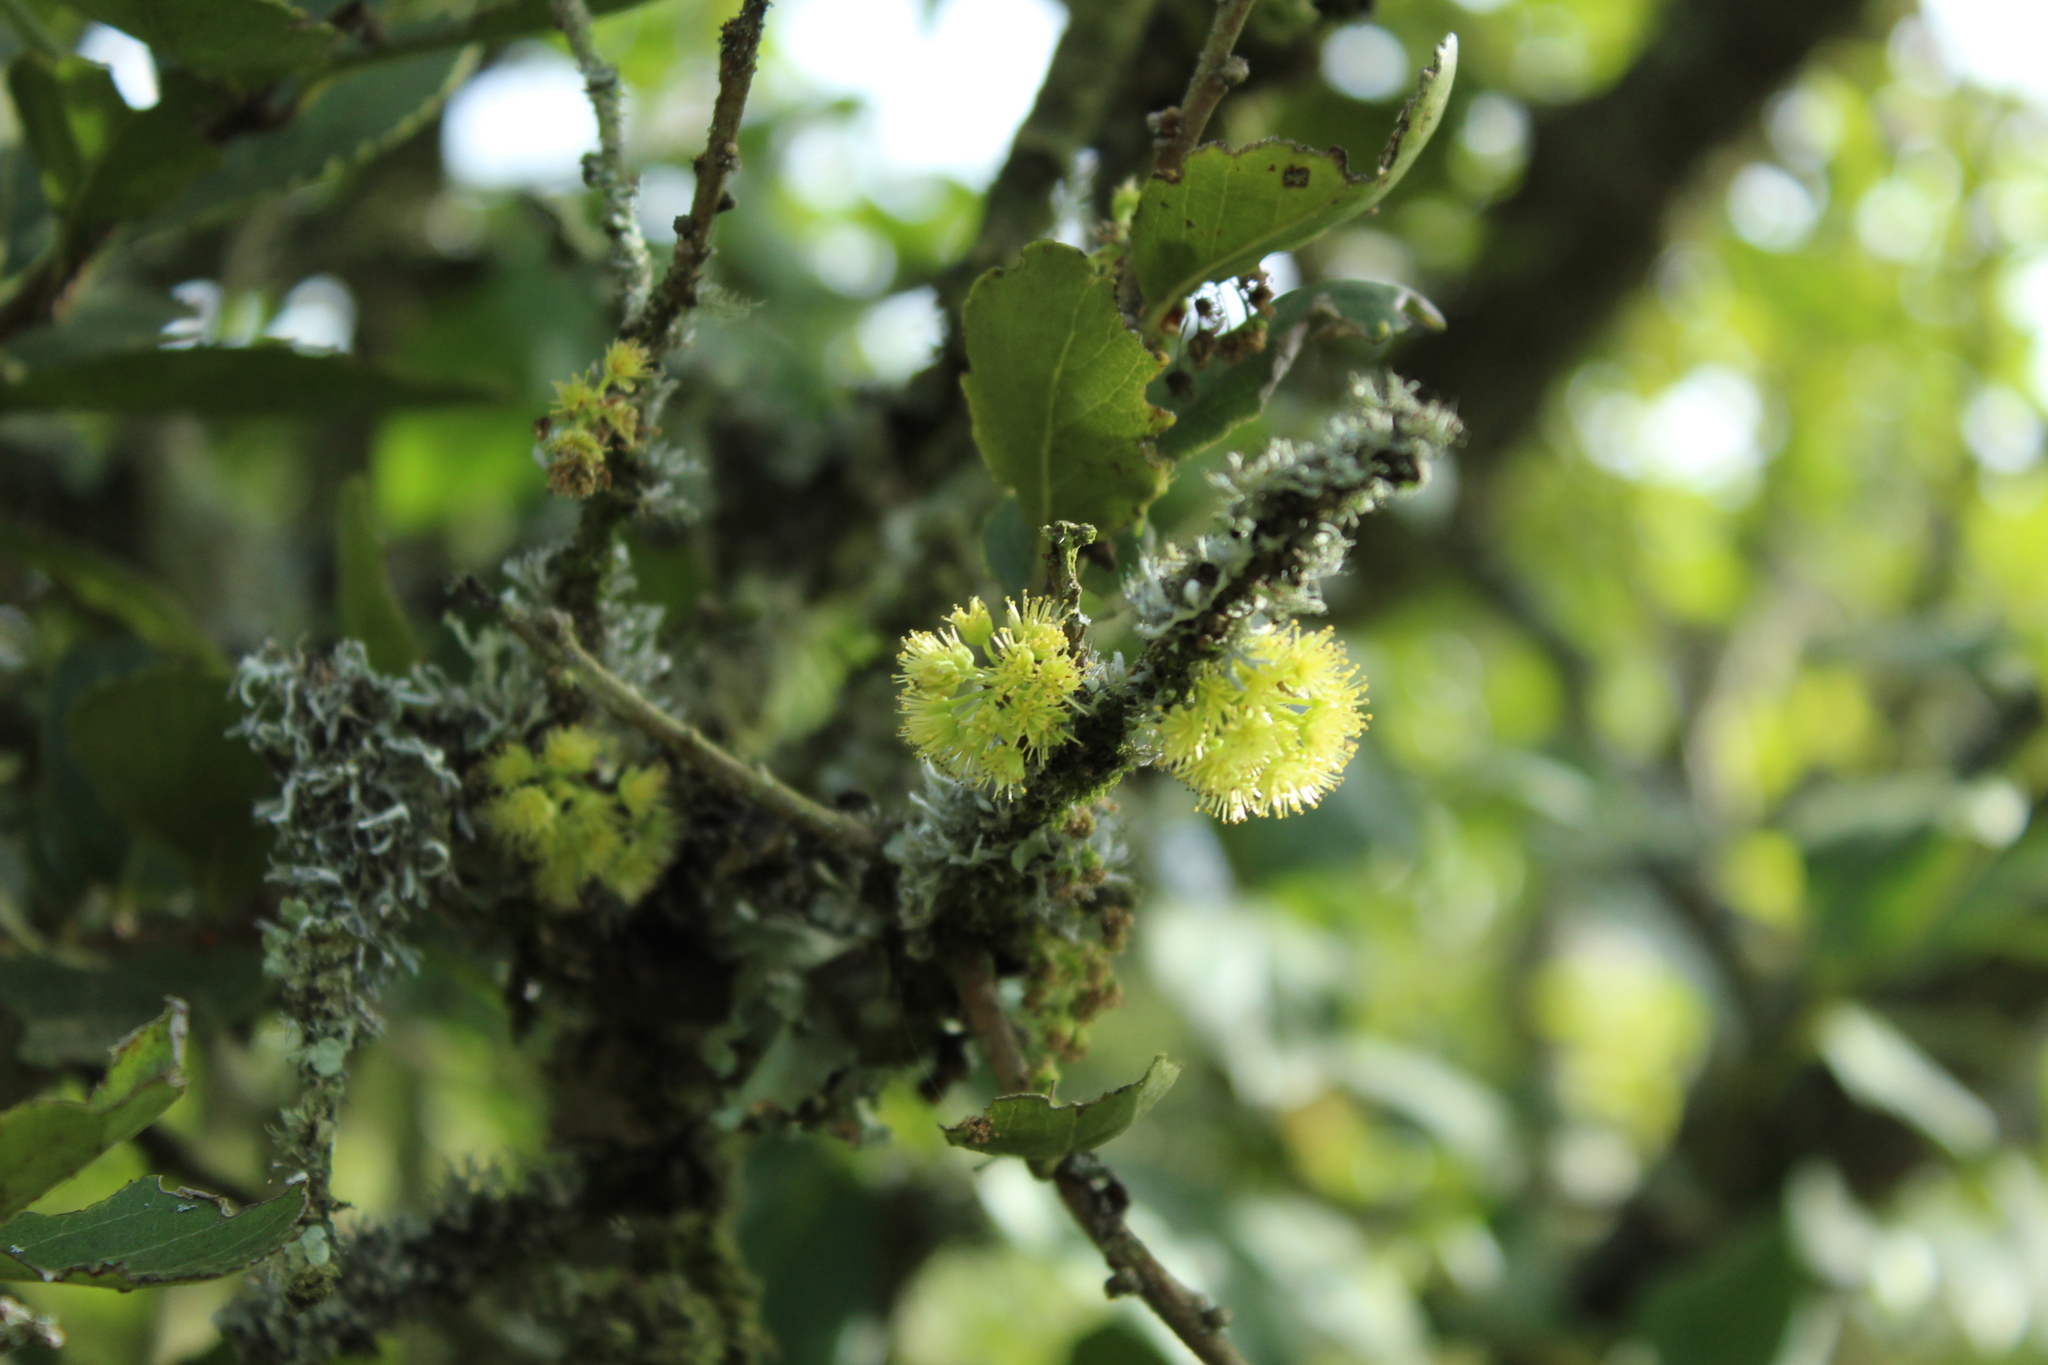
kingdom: Plantae
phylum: Tracheophyta
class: Magnoliopsida
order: Malpighiales
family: Salicaceae
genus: Xylosma
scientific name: Xylosma spiculifera
